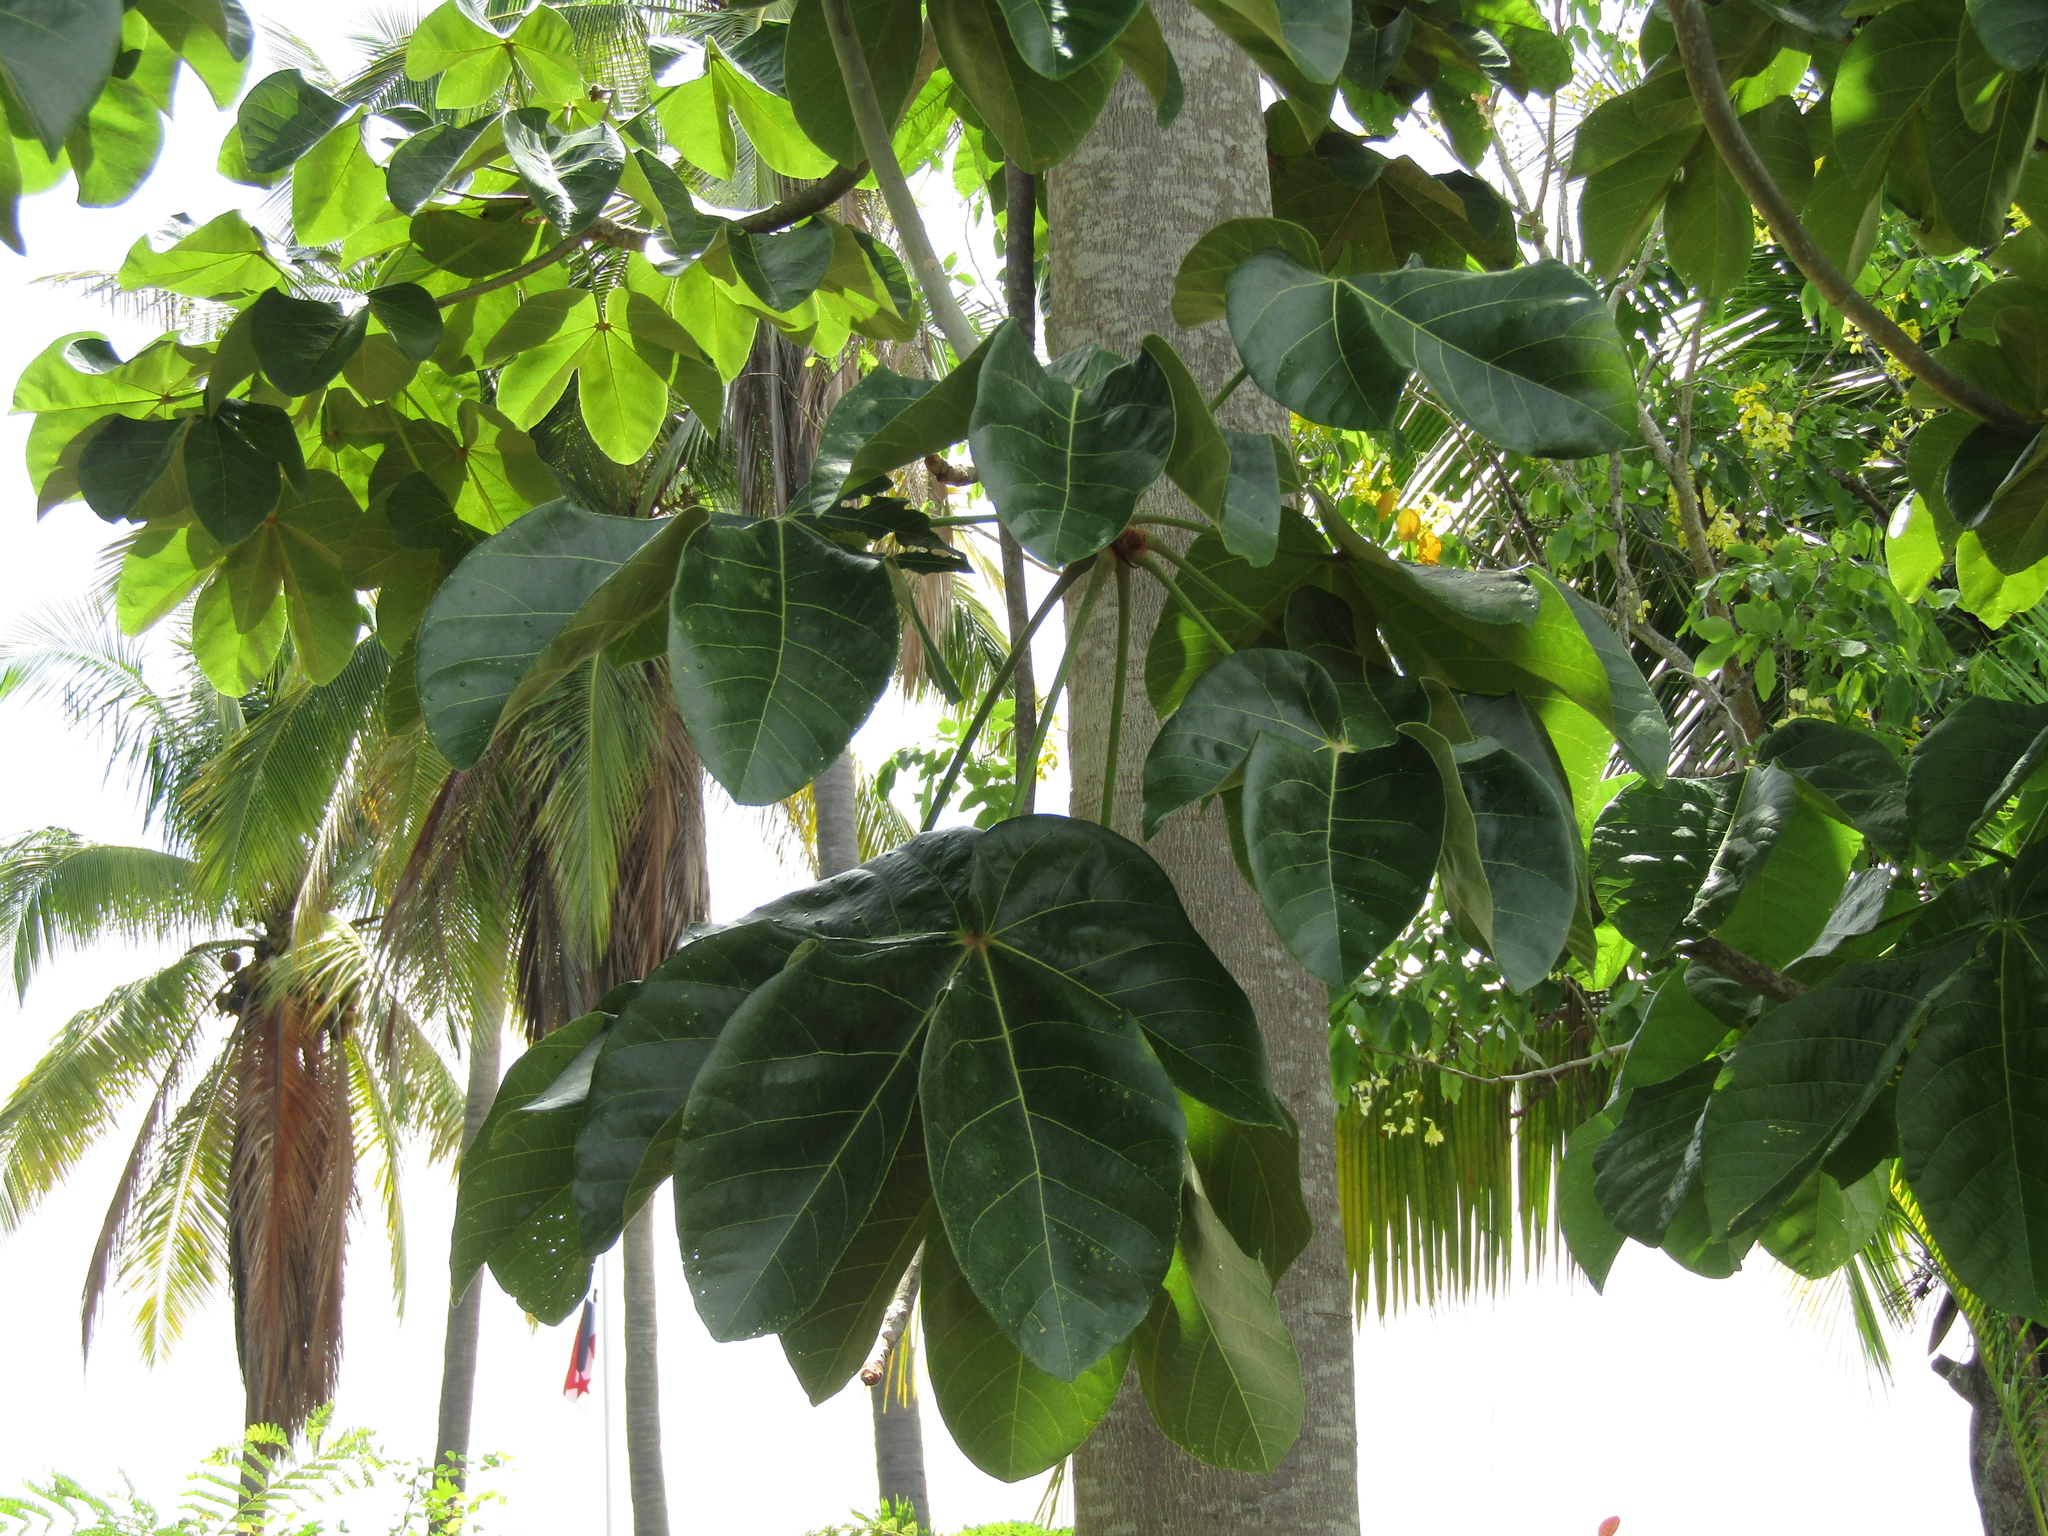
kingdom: Plantae
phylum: Tracheophyta
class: Magnoliopsida
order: Malvales
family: Malvaceae
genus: Sterculia
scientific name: Sterculia apetala
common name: Panama tree
